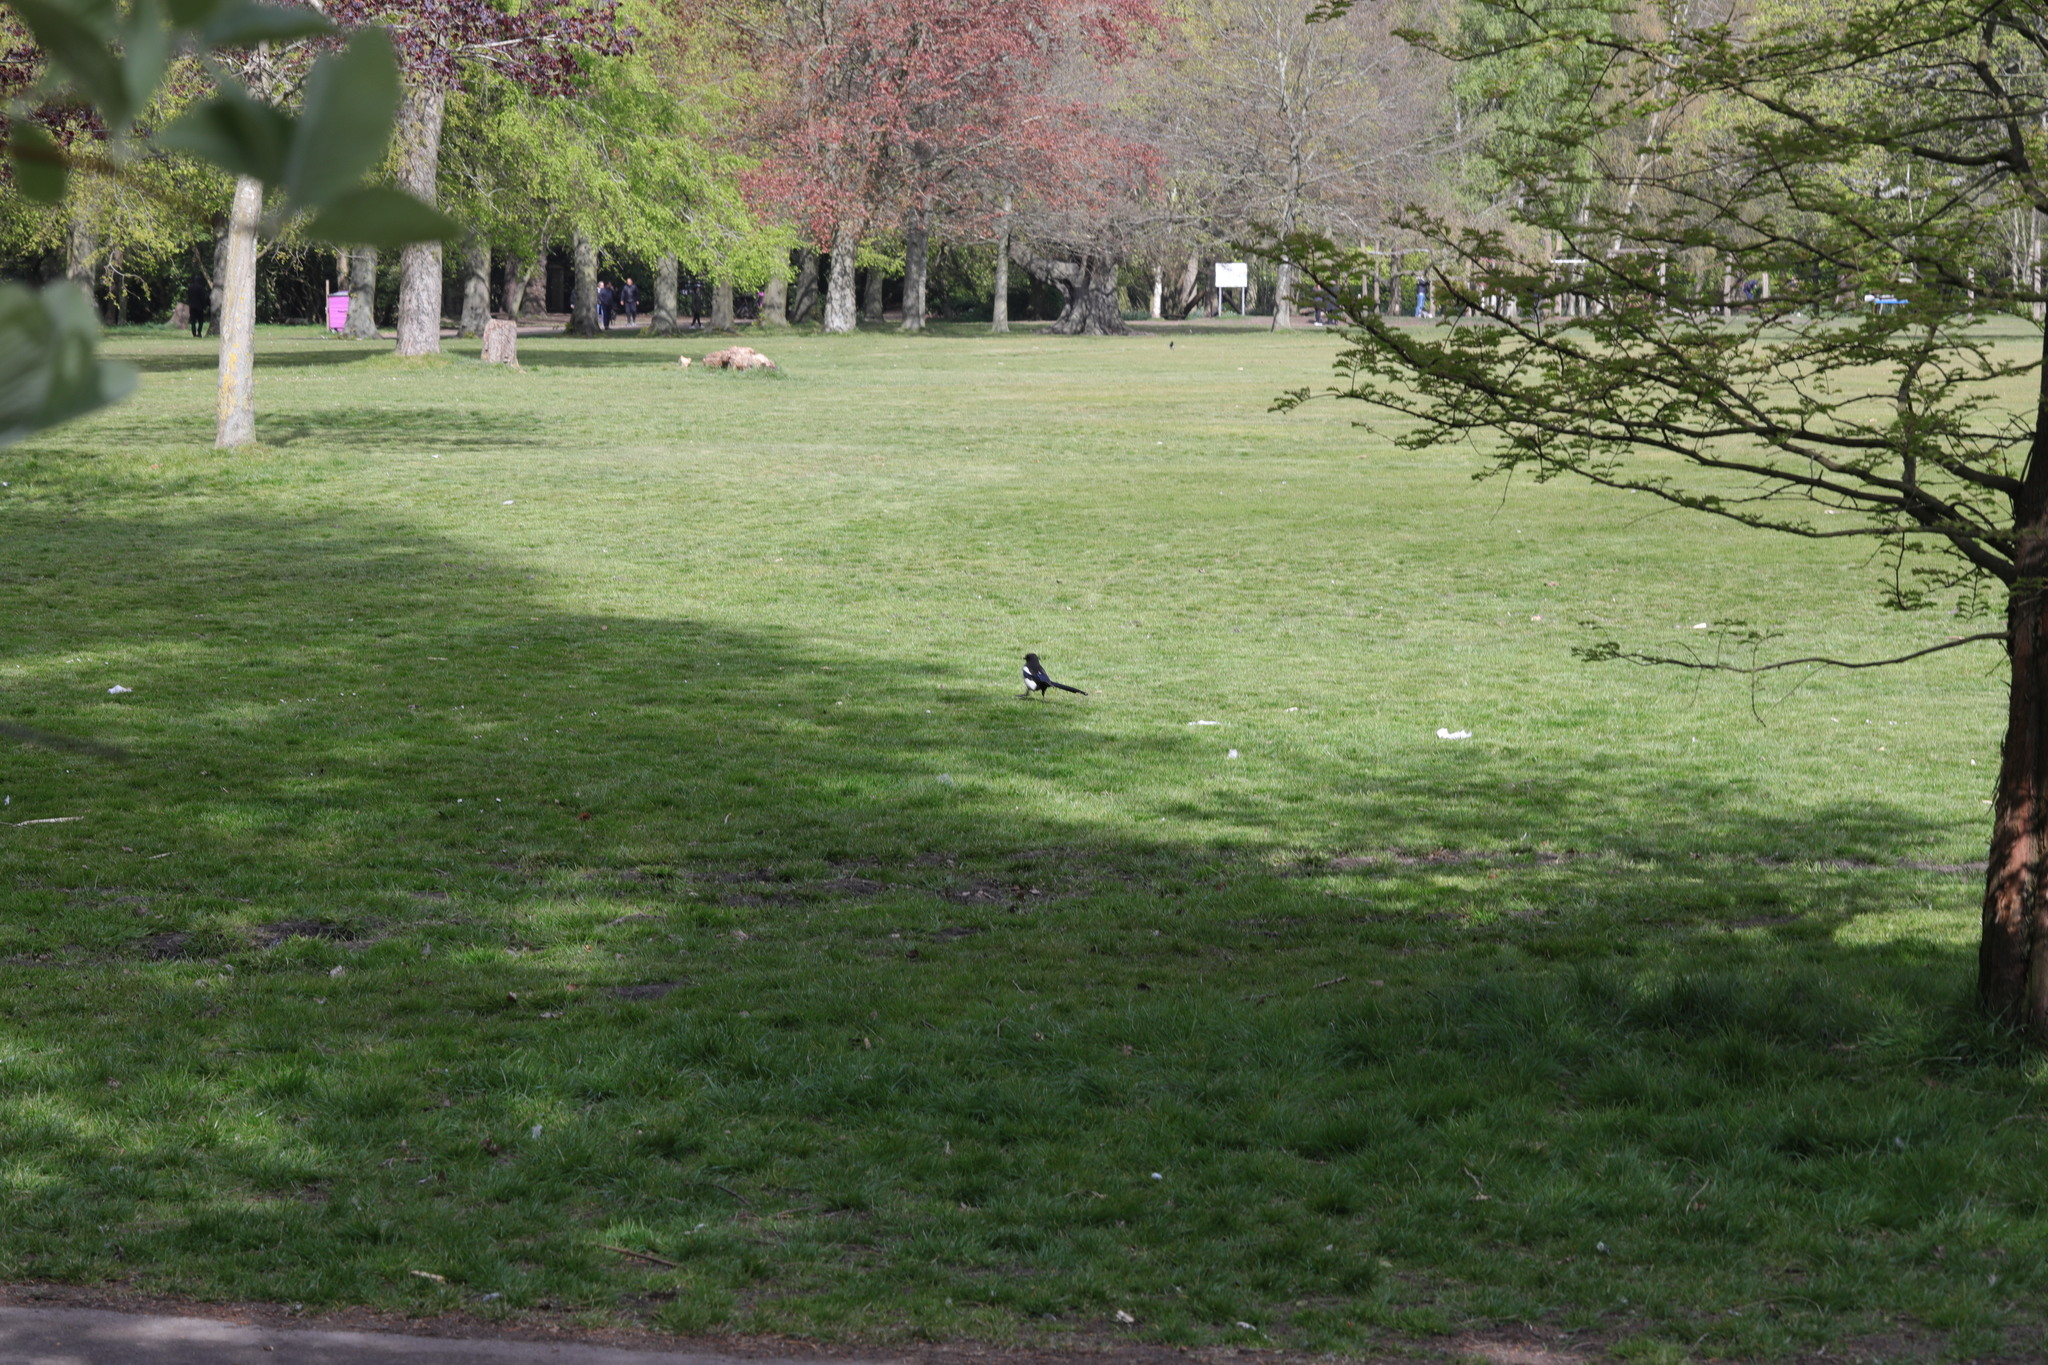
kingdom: Animalia
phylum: Chordata
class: Aves
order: Passeriformes
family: Corvidae
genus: Pica
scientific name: Pica pica
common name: Eurasian magpie
